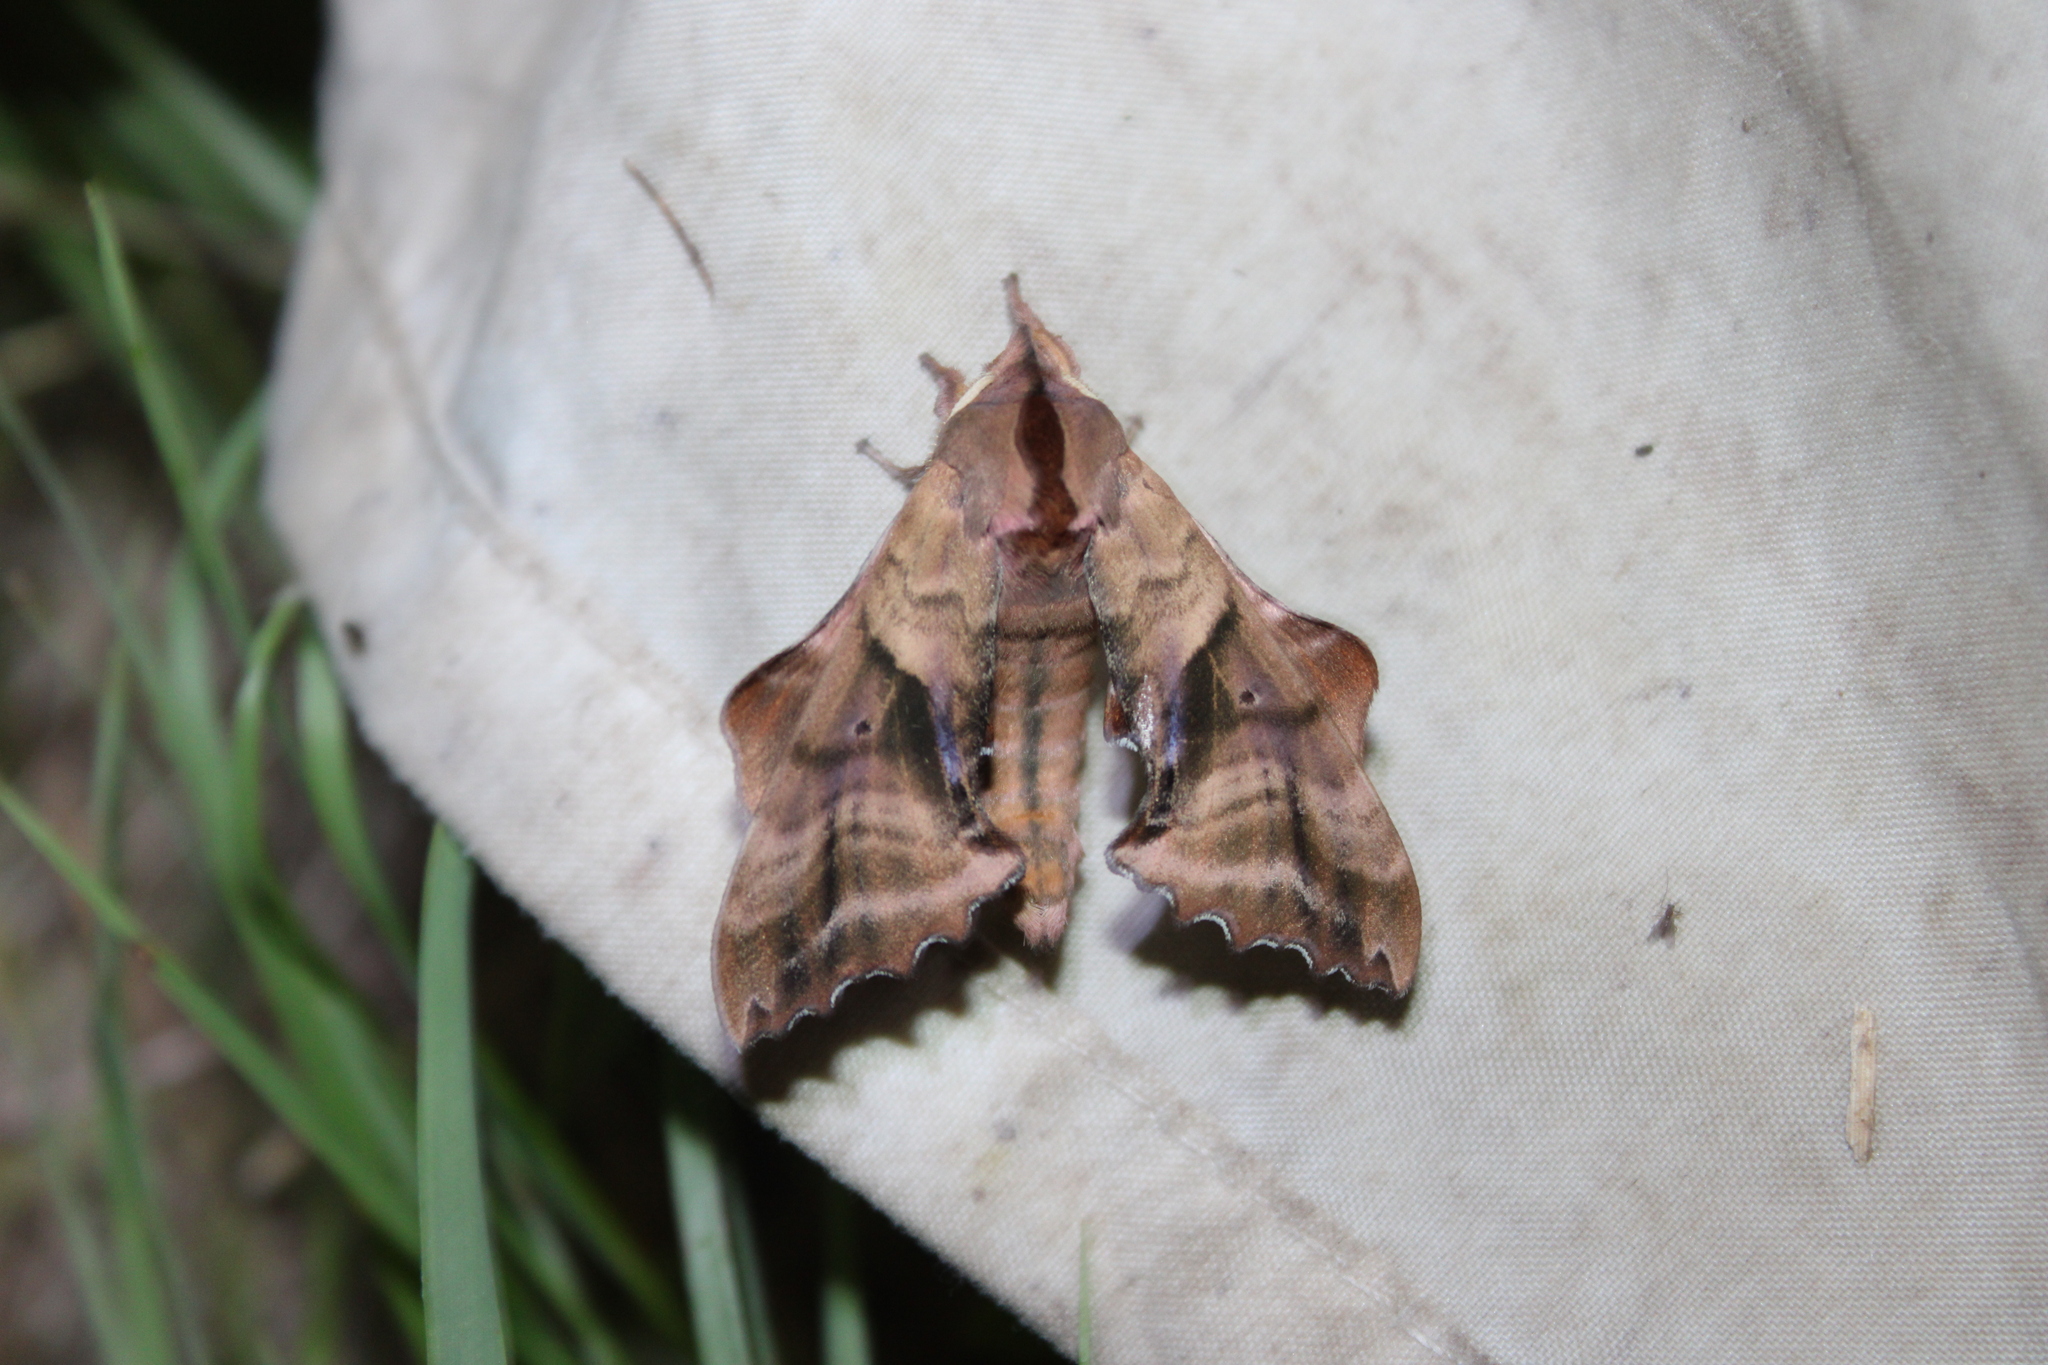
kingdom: Animalia
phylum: Arthropoda
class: Insecta
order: Lepidoptera
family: Sphingidae
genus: Paonias
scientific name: Paonias excaecata
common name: Blind-eyed sphinx
